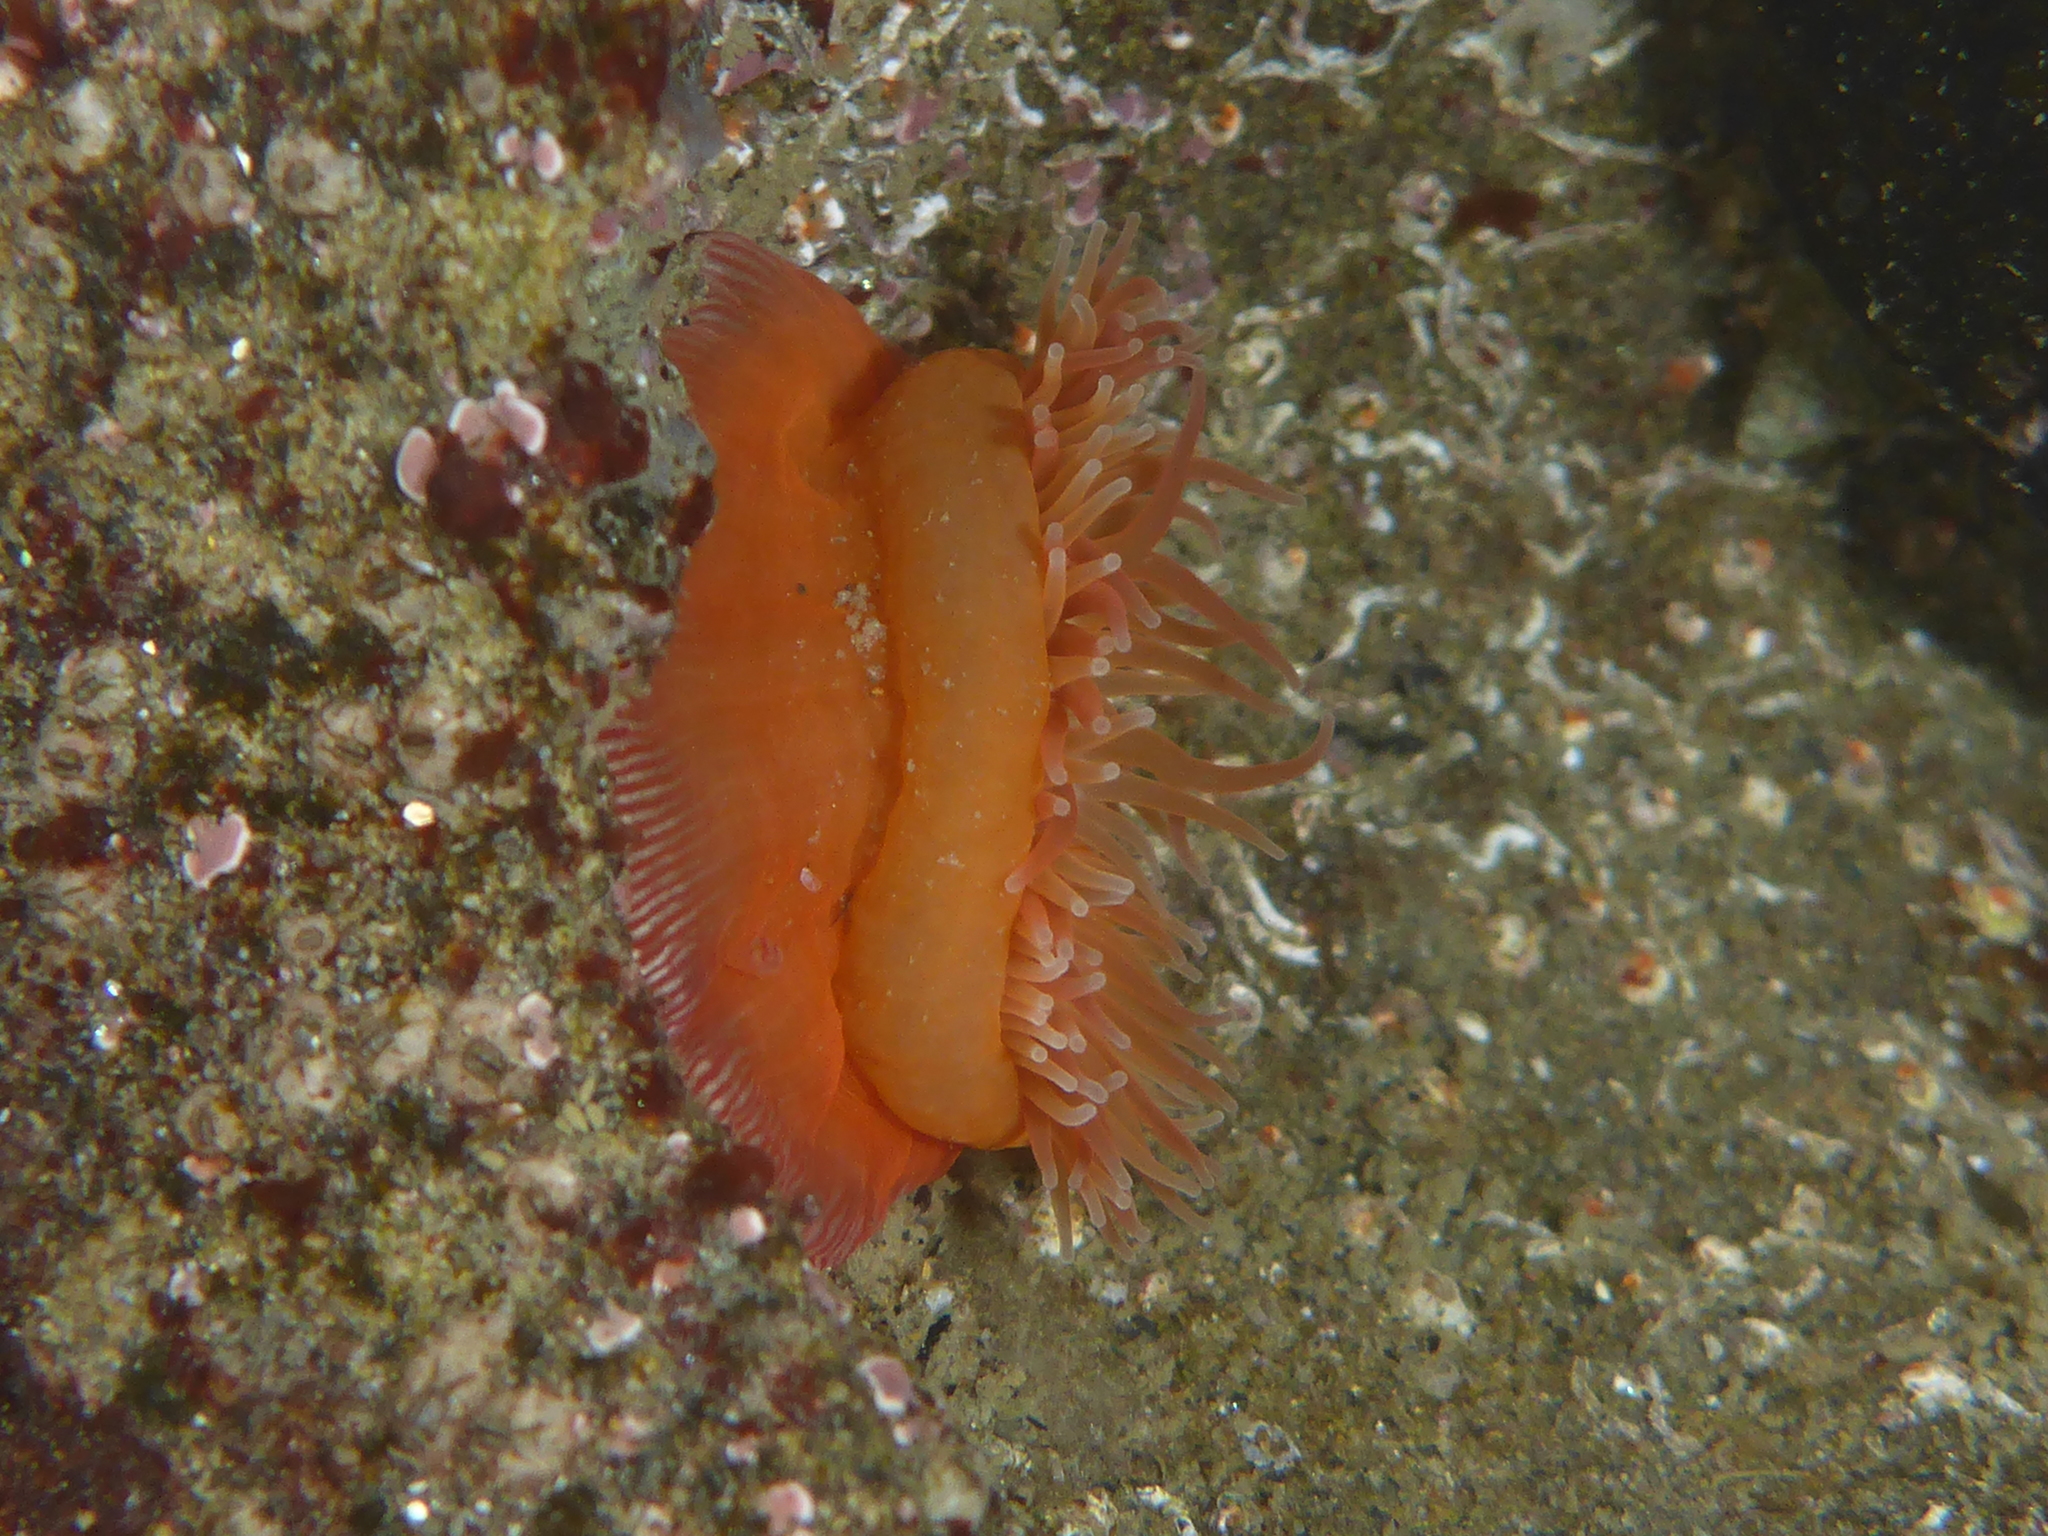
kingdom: Animalia
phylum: Cnidaria
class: Anthozoa
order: Actiniaria
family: Actiniidae
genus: Epiactis
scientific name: Epiactis prolifera
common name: Brooding anemone
